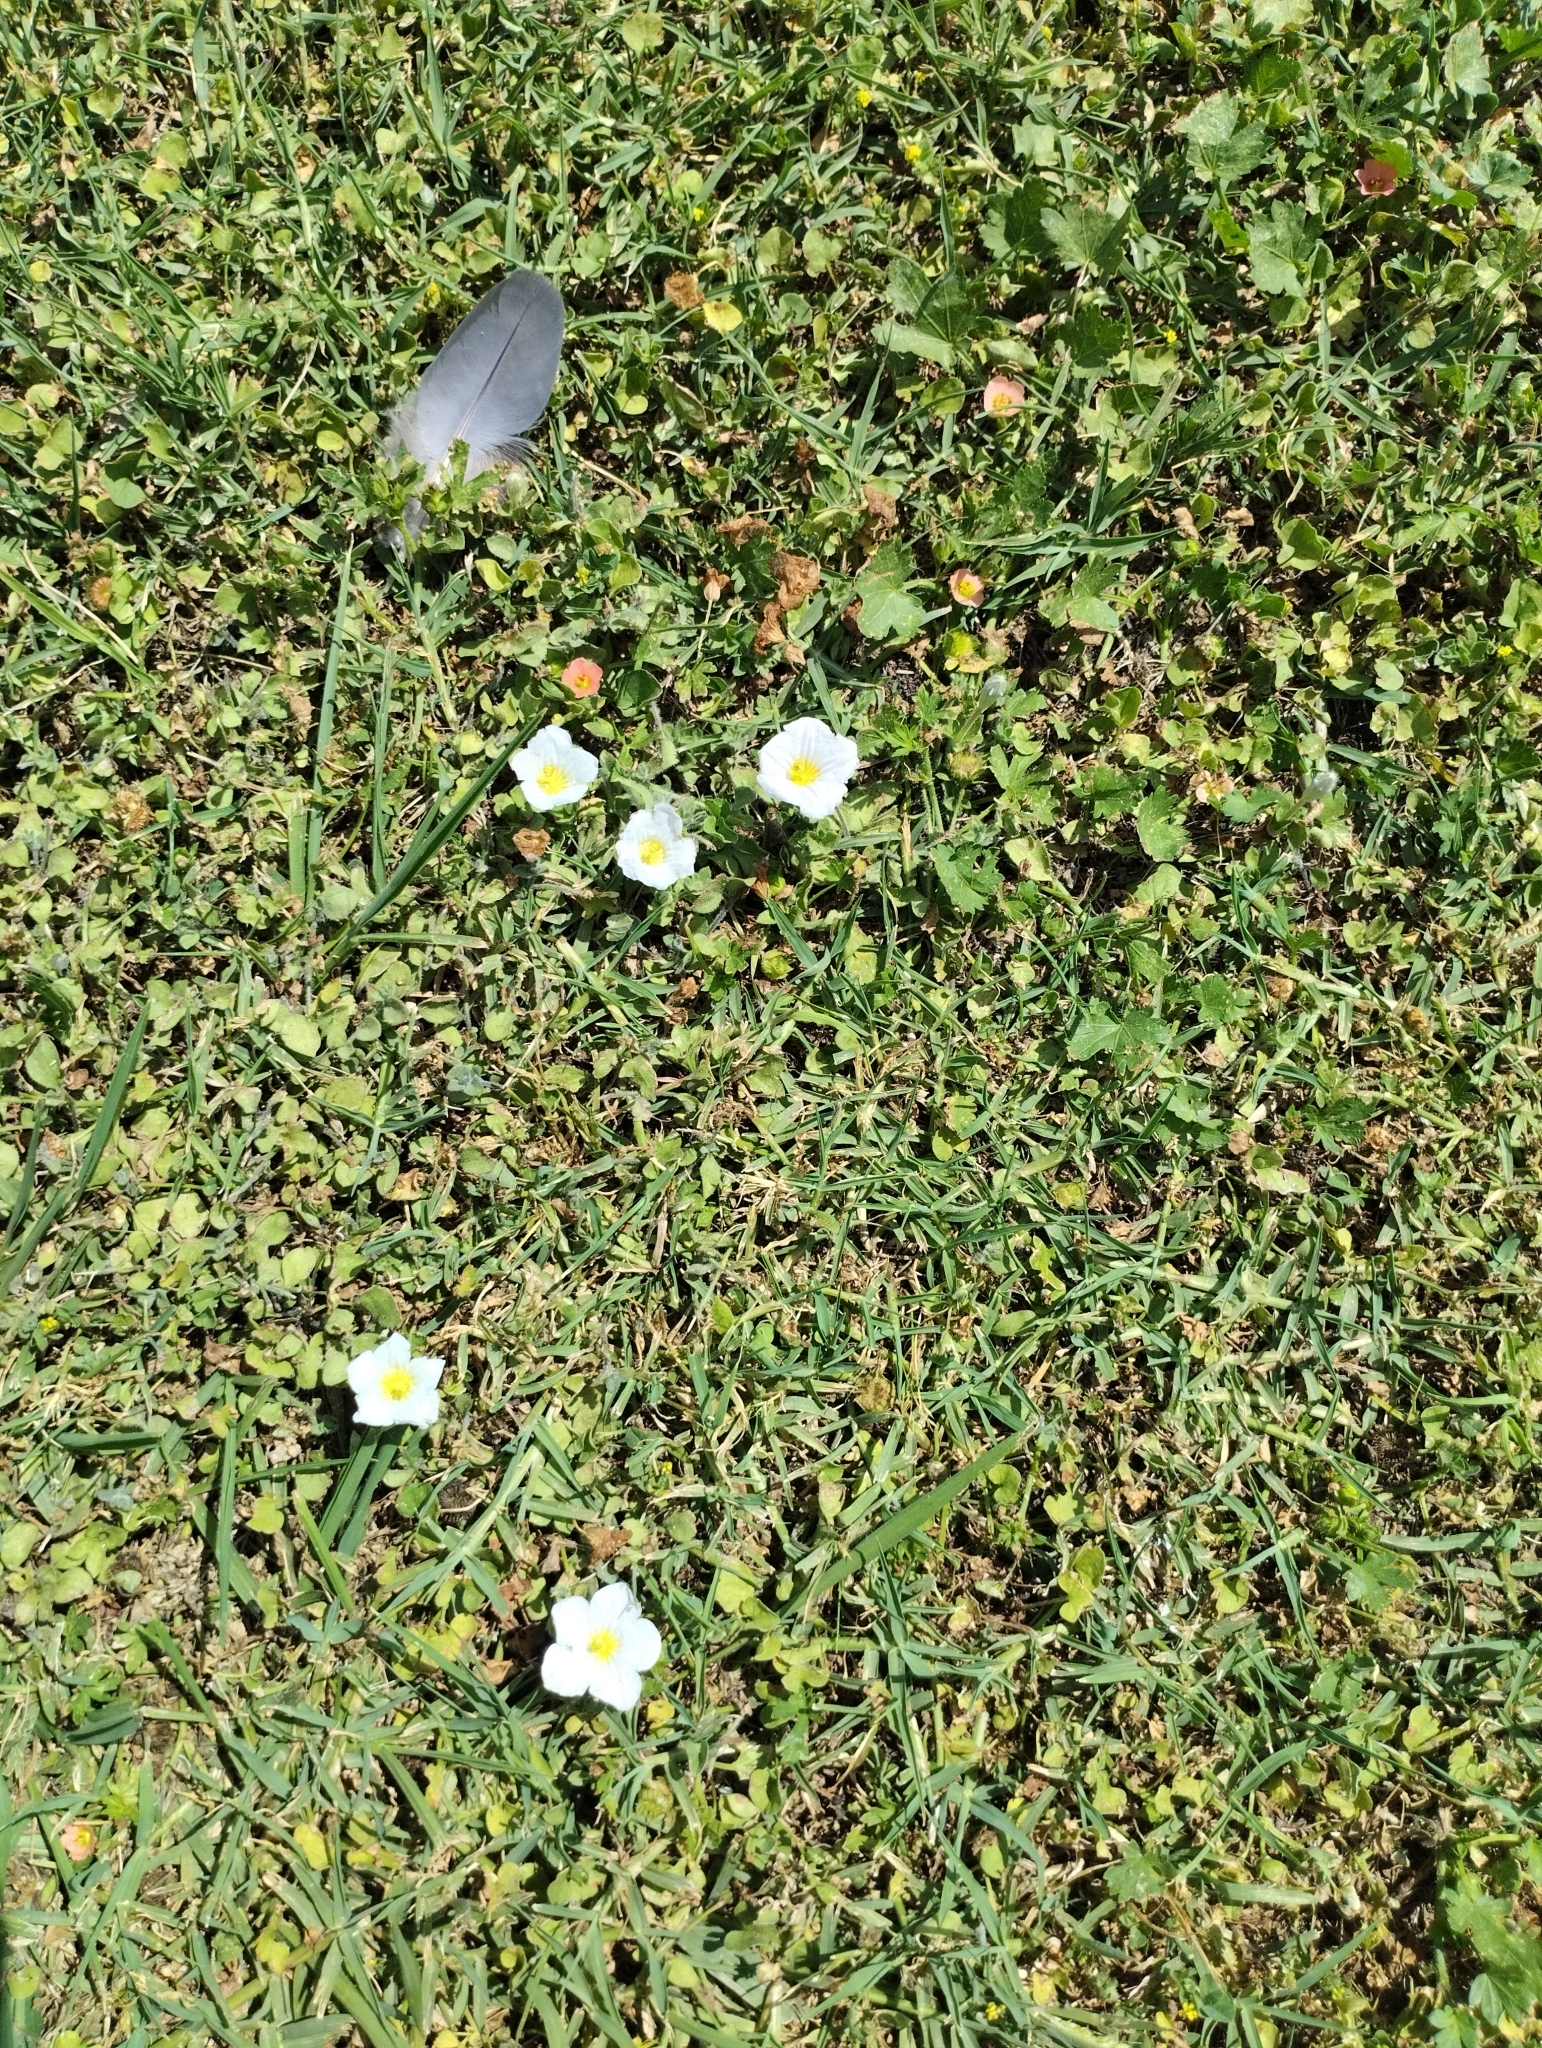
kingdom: Plantae
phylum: Tracheophyta
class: Magnoliopsida
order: Solanales
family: Solanaceae
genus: Nierembergia
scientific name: Nierembergia calycina
